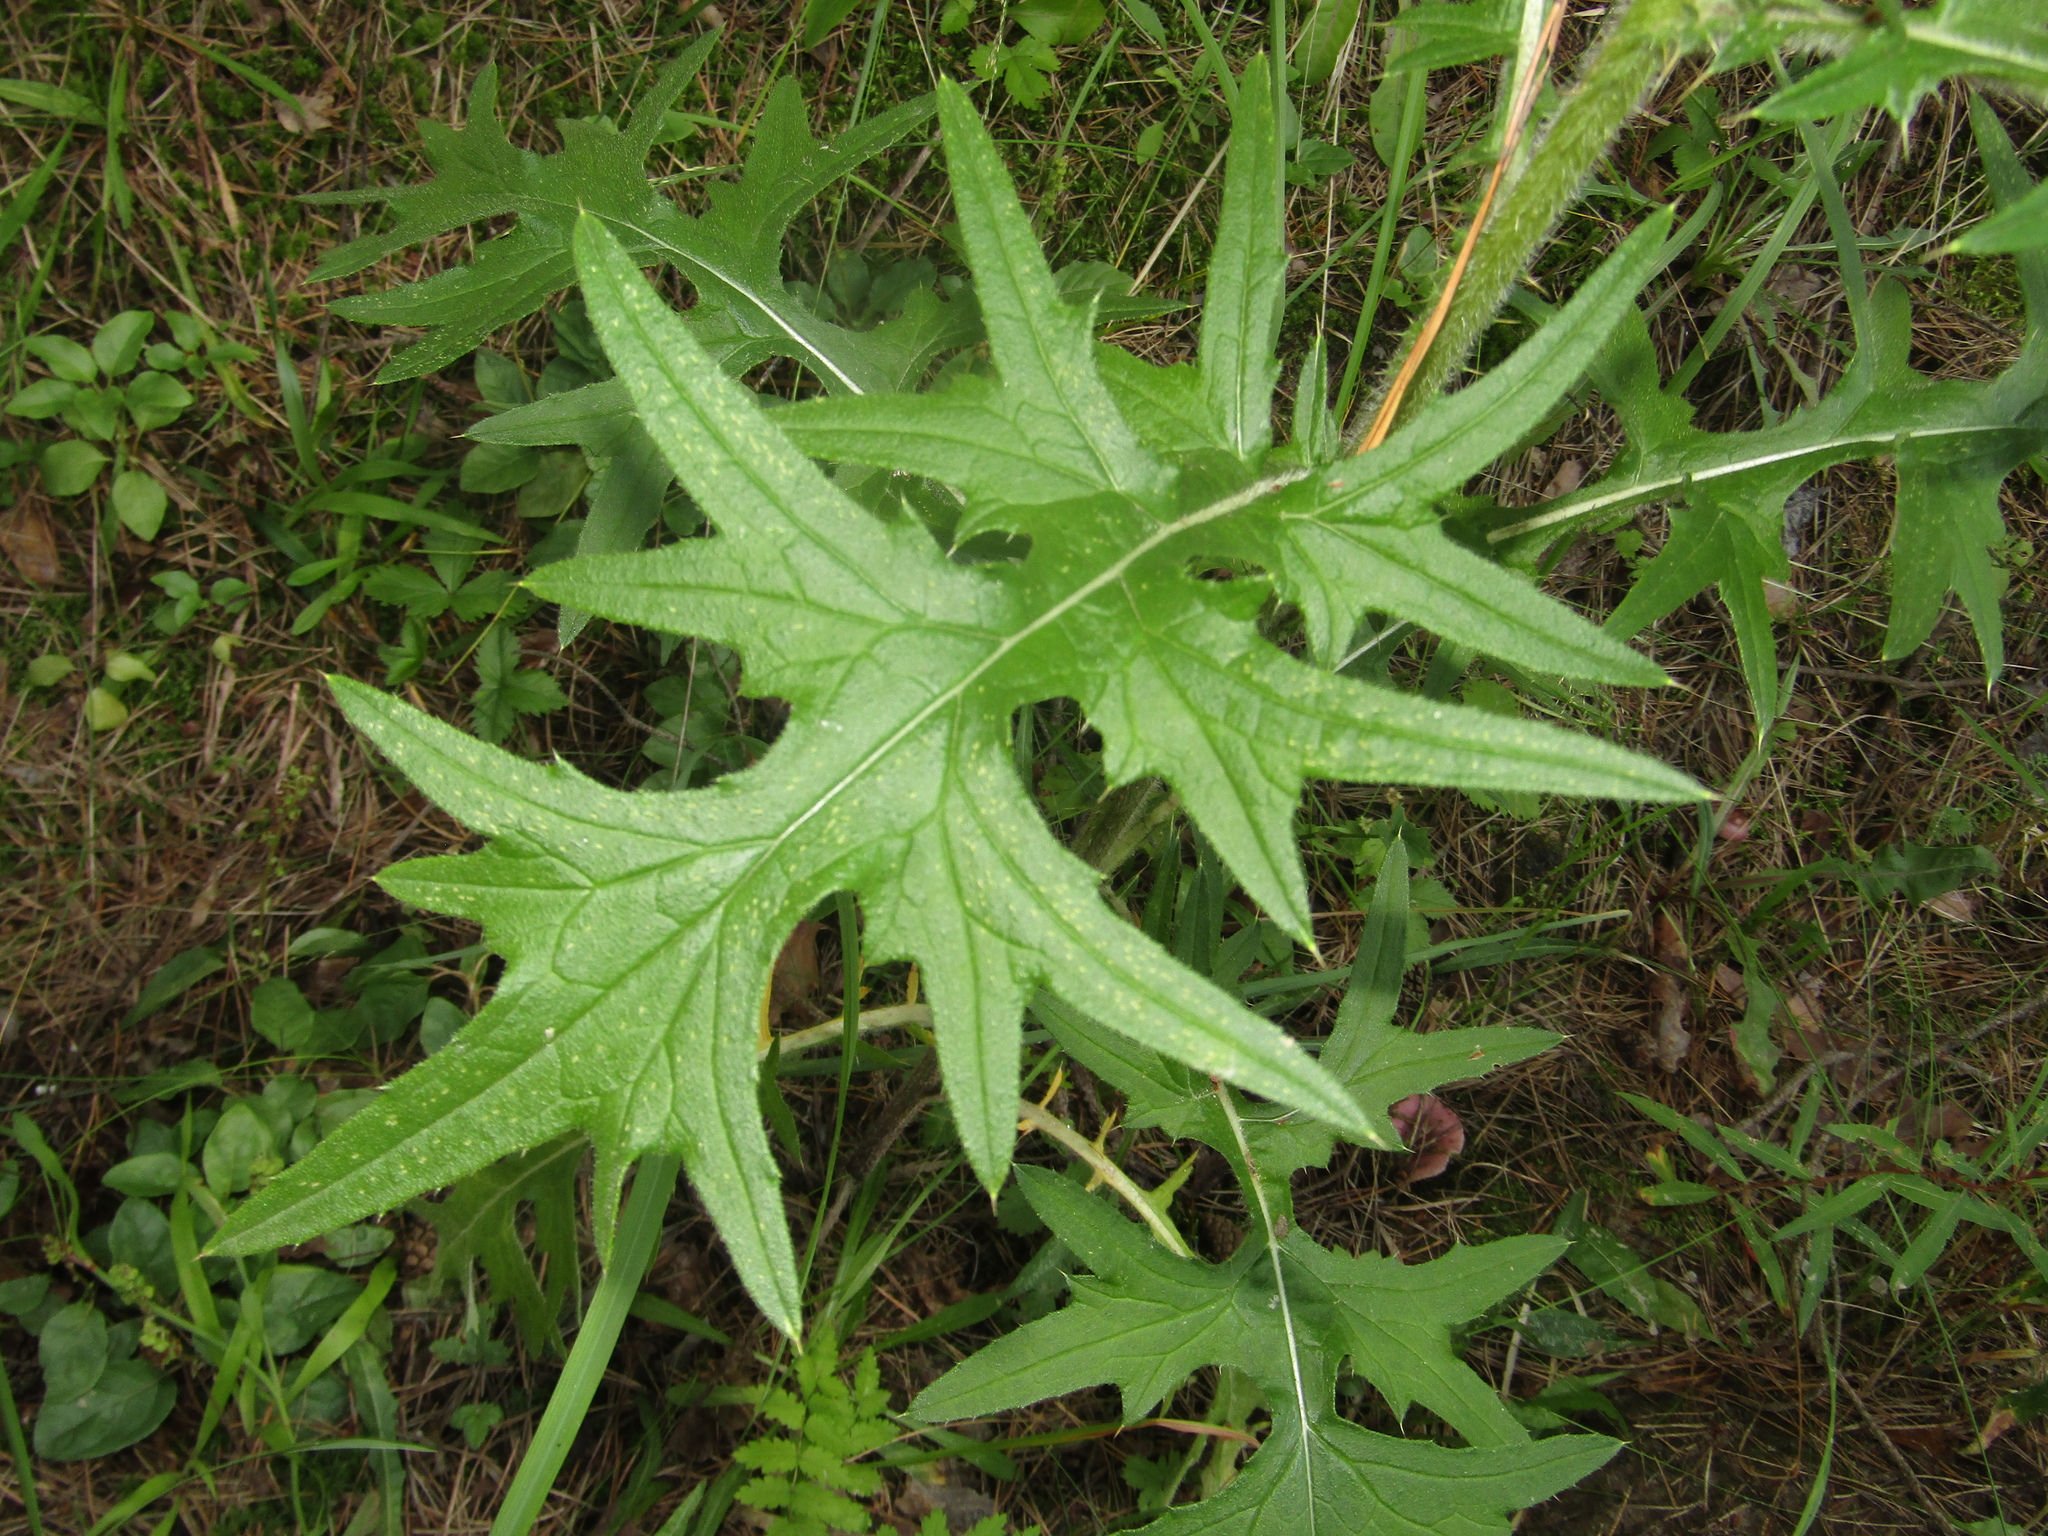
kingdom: Plantae
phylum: Tracheophyta
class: Magnoliopsida
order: Asterales
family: Asteraceae
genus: Cirsium
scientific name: Cirsium vulgare
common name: Bull thistle
